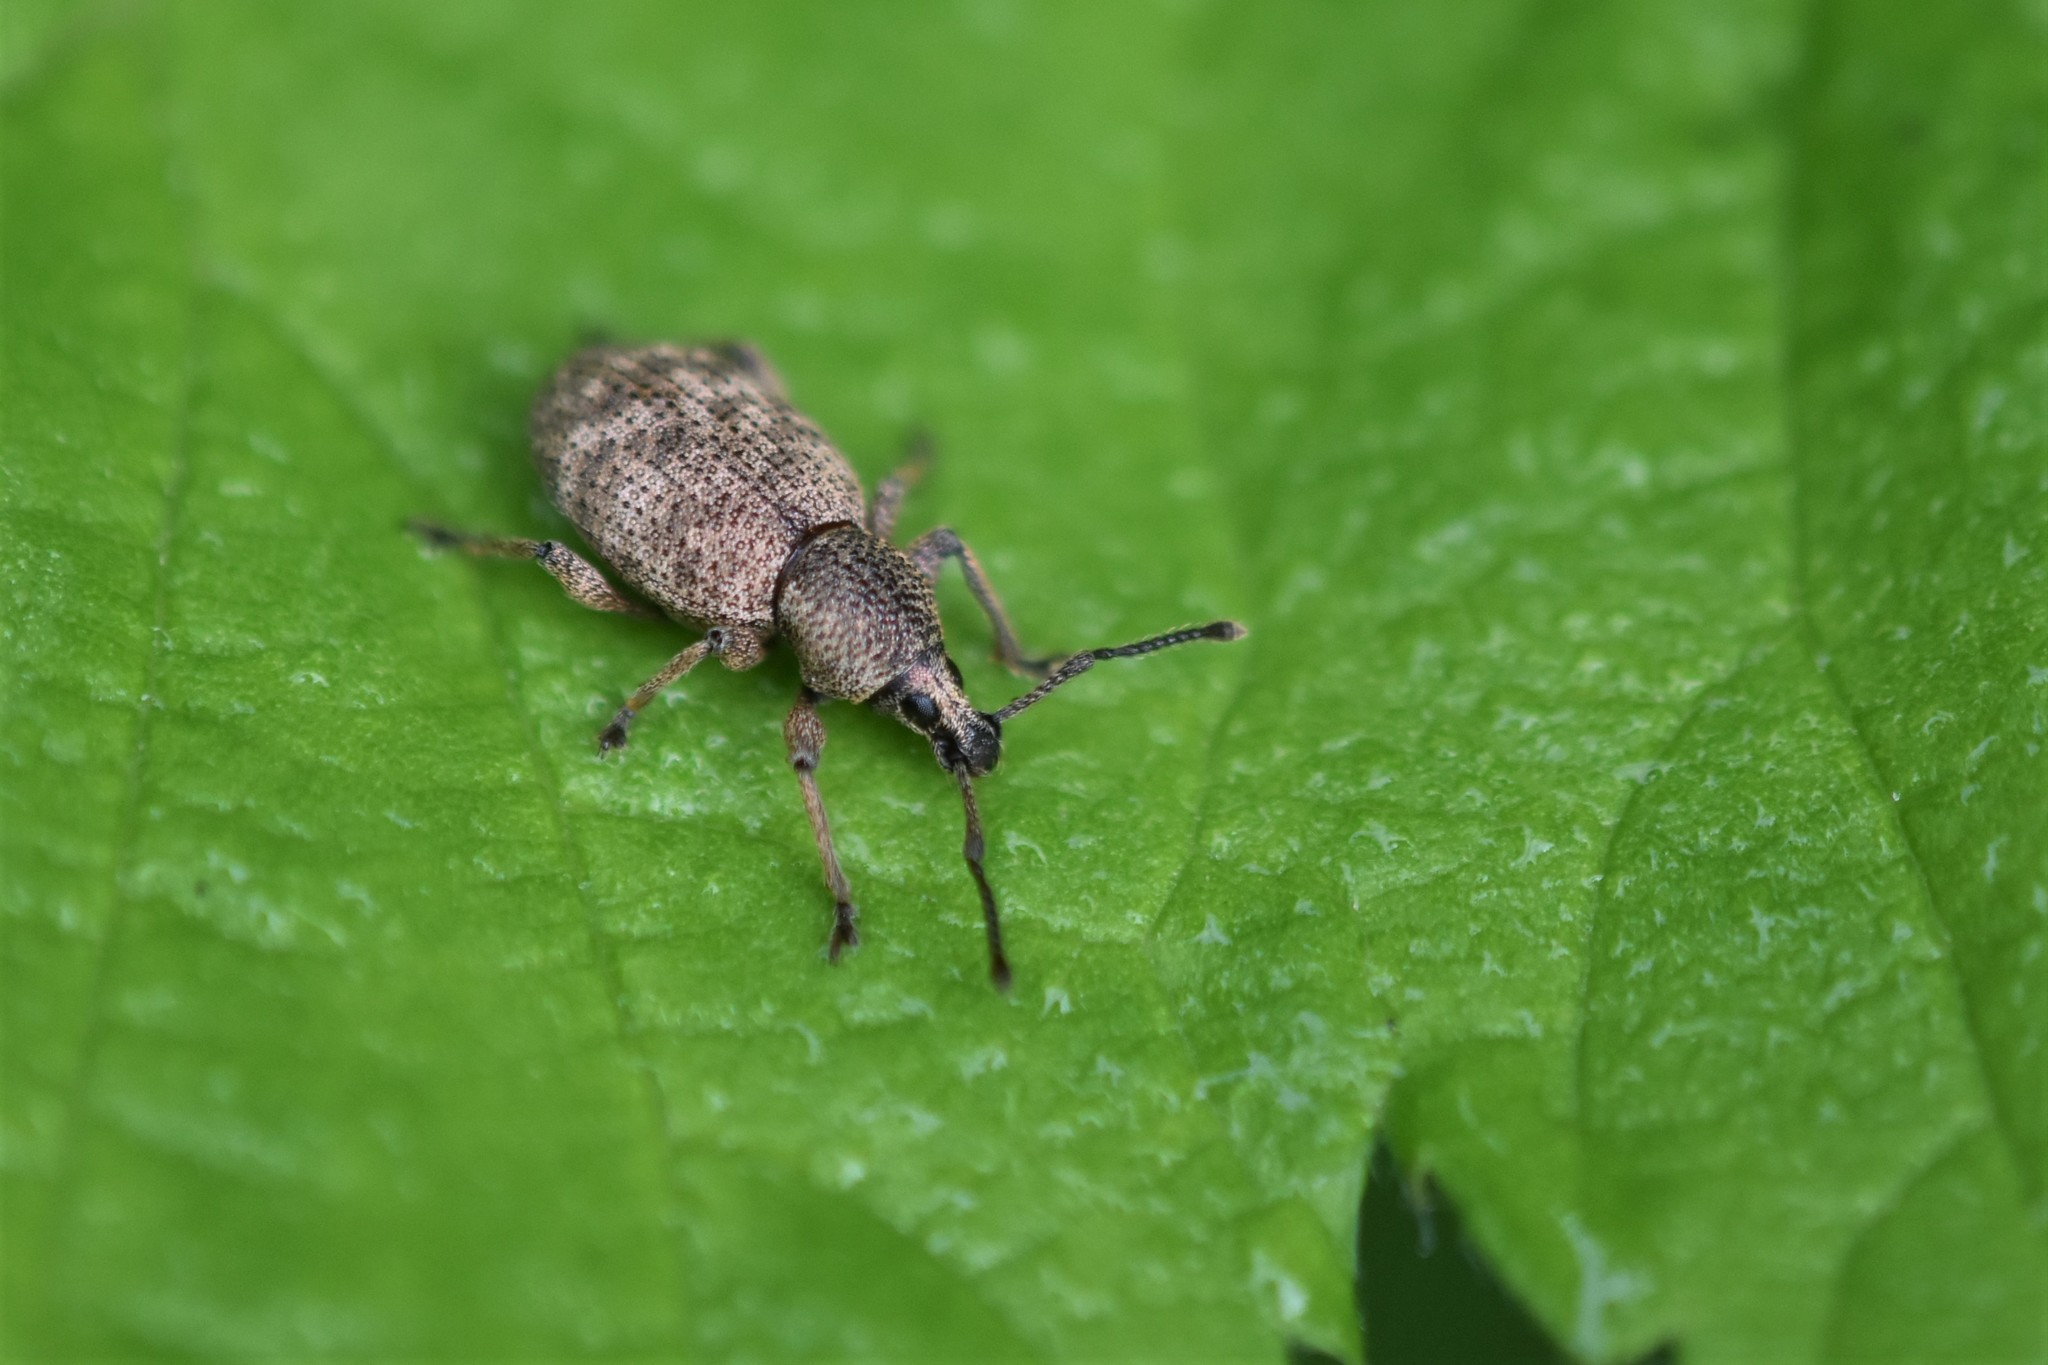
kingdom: Animalia
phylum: Arthropoda
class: Insecta
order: Coleoptera
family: Curculionidae
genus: Otiorhynchus
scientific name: Otiorhynchus singularis
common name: Clay-coloured weevil
